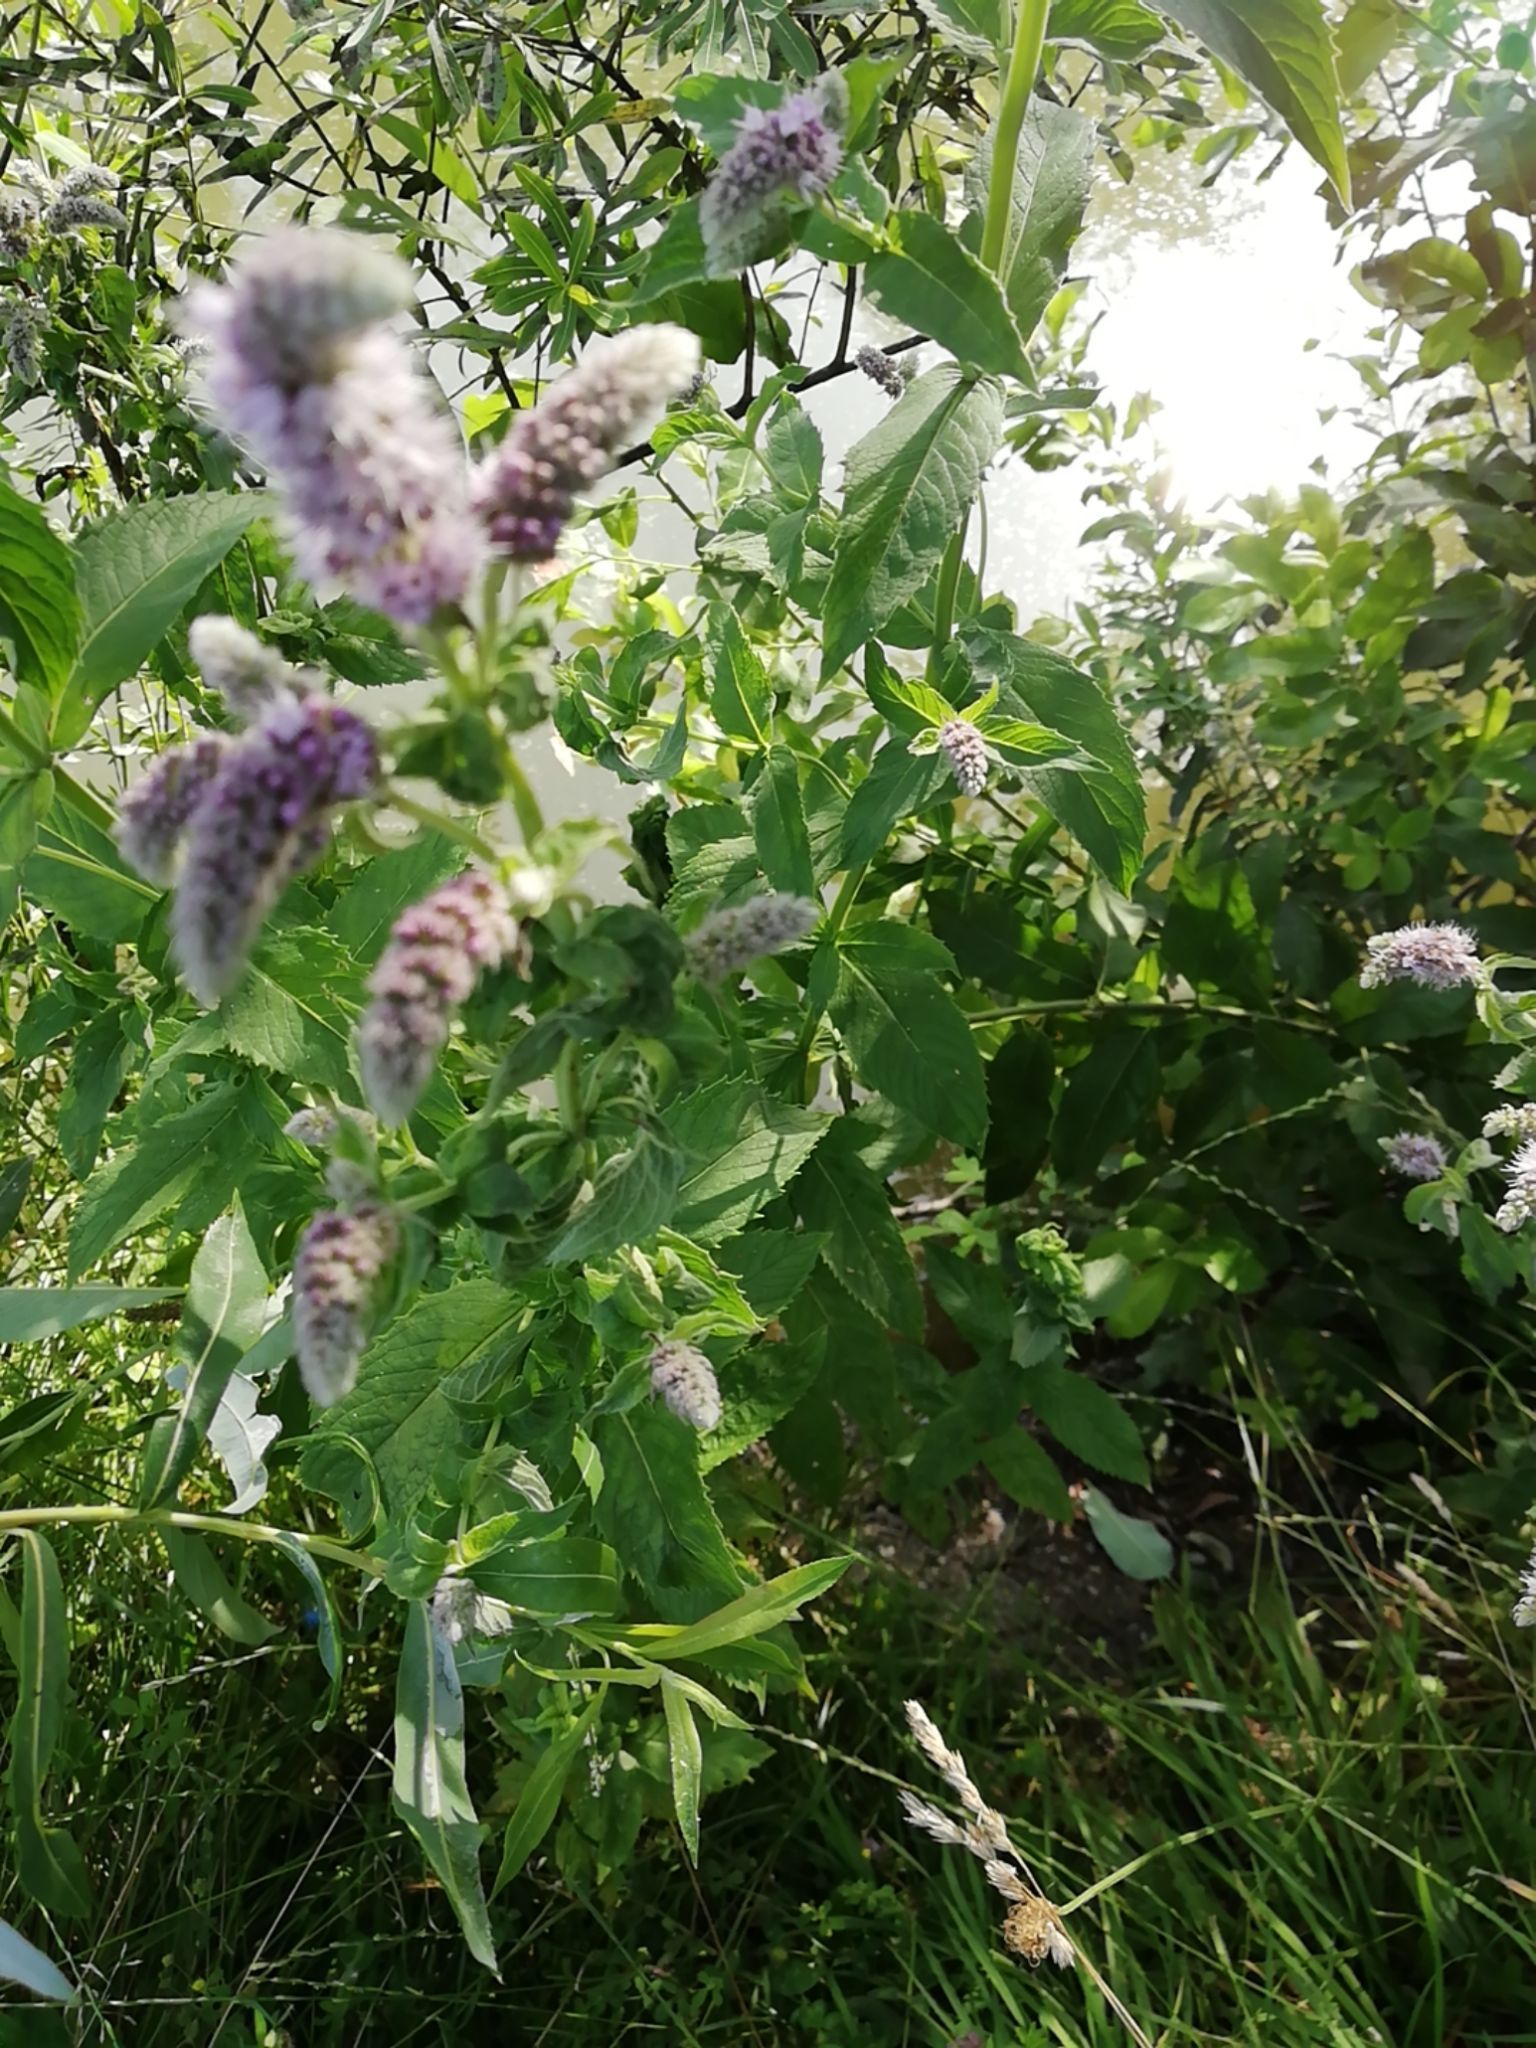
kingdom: Plantae
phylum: Tracheophyta
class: Magnoliopsida
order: Lamiales
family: Lamiaceae
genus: Mentha
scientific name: Mentha longifolia
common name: Horse mint
